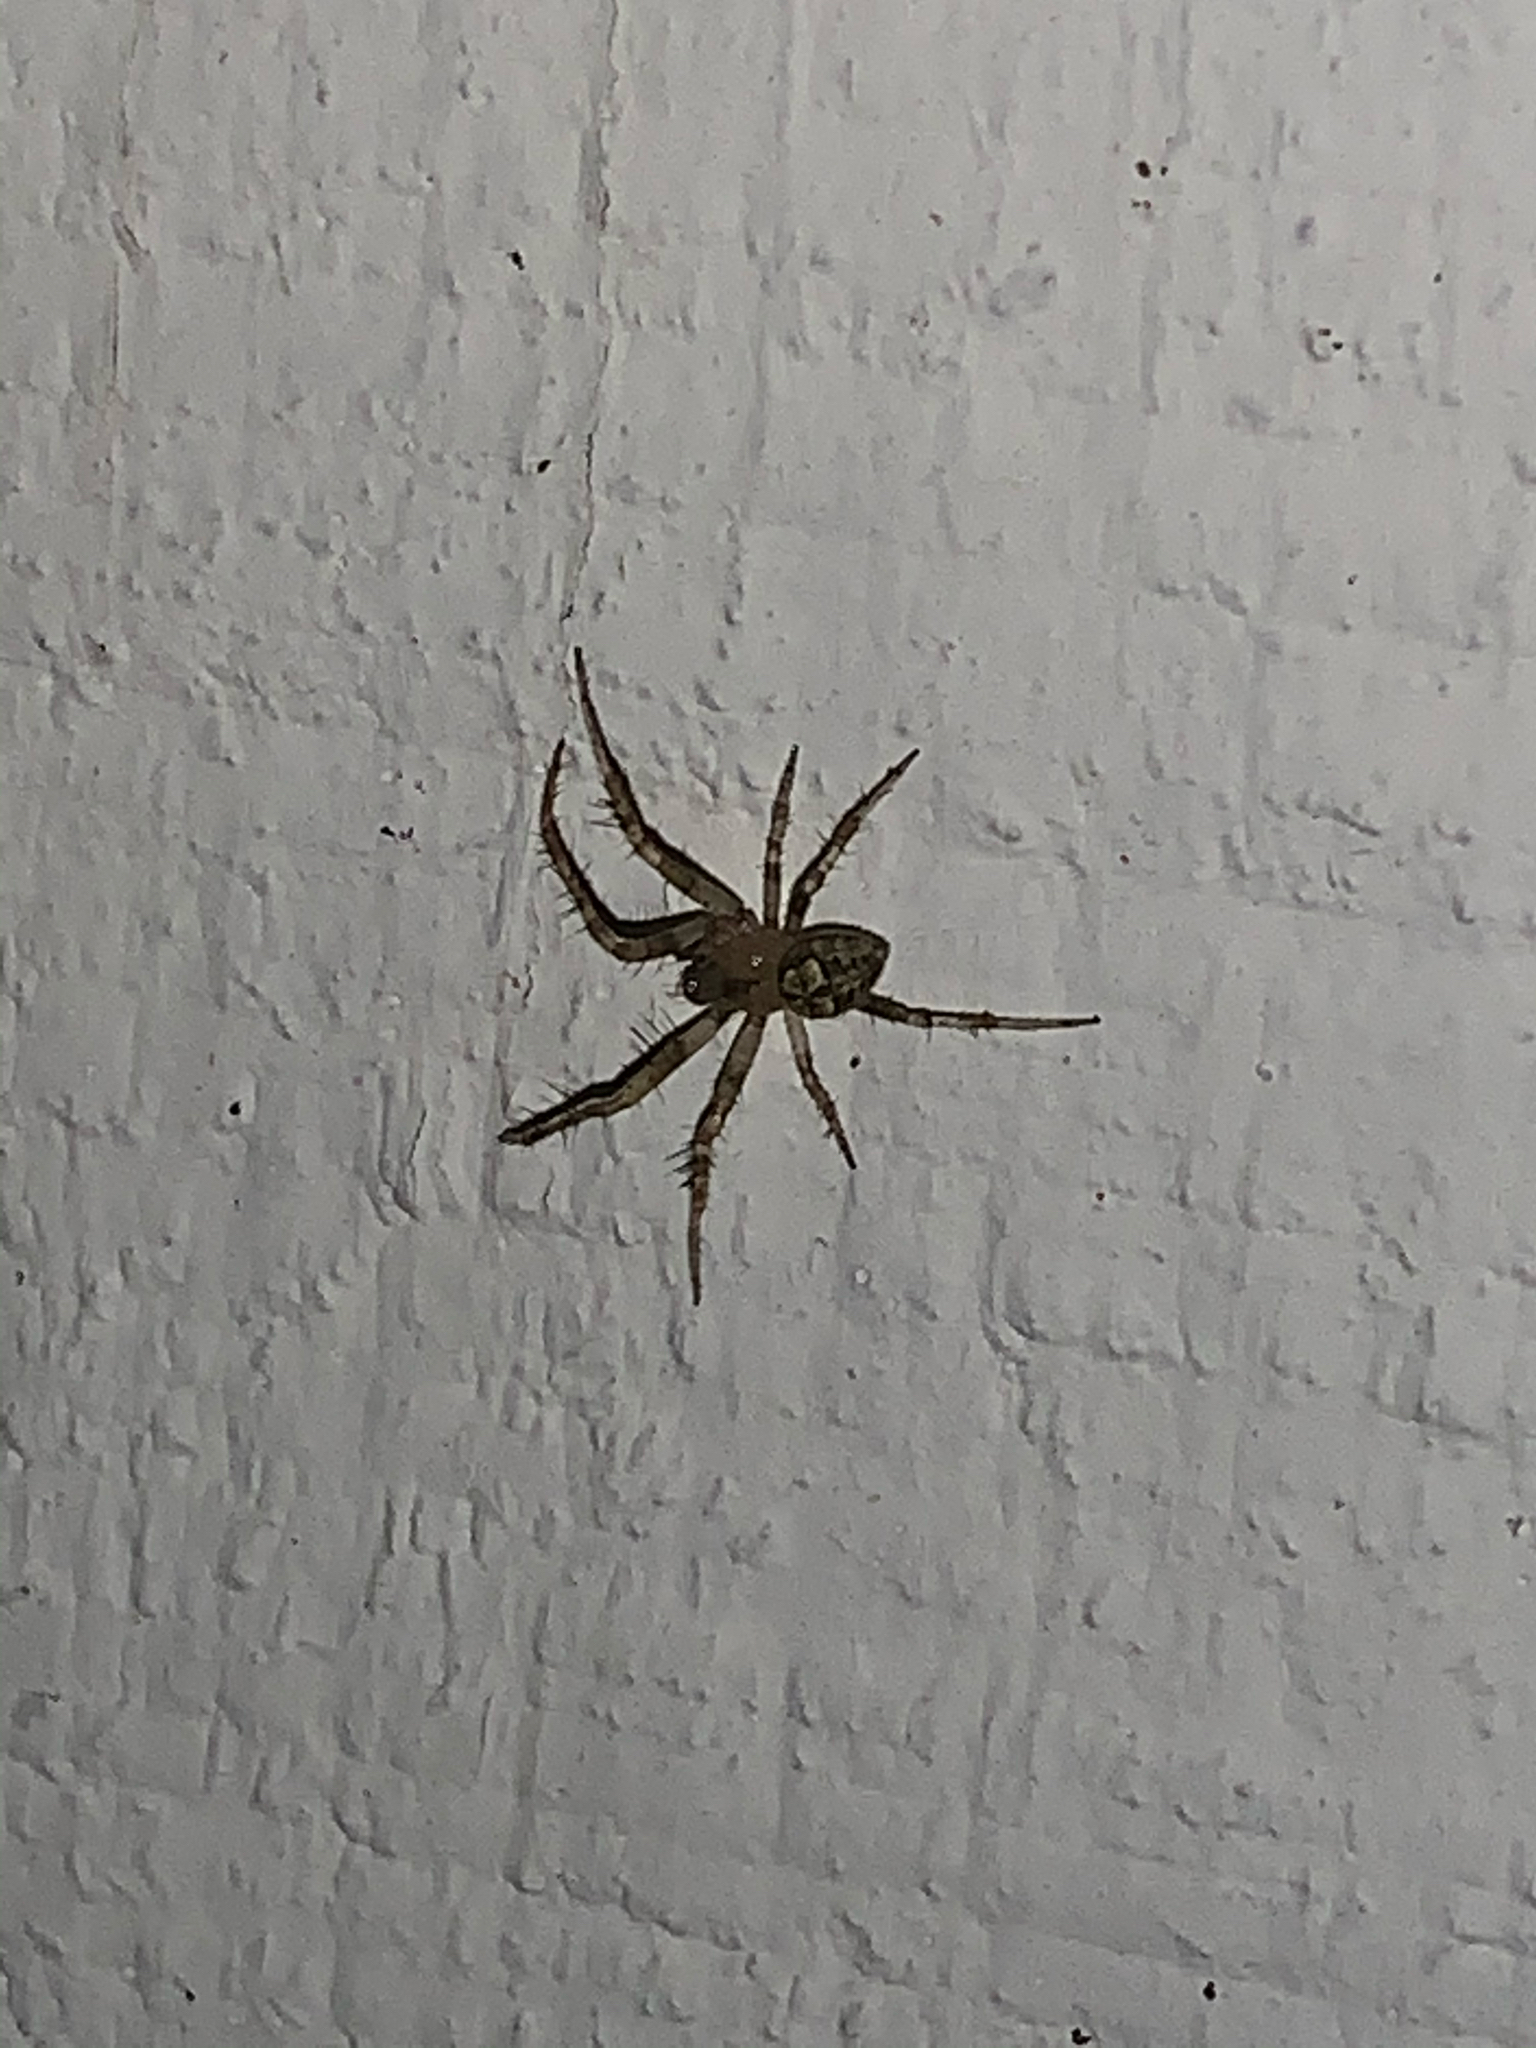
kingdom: Animalia
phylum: Arthropoda
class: Arachnida
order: Araneae
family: Araneidae
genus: Araneus
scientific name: Araneus pegnia
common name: Orb weavers
